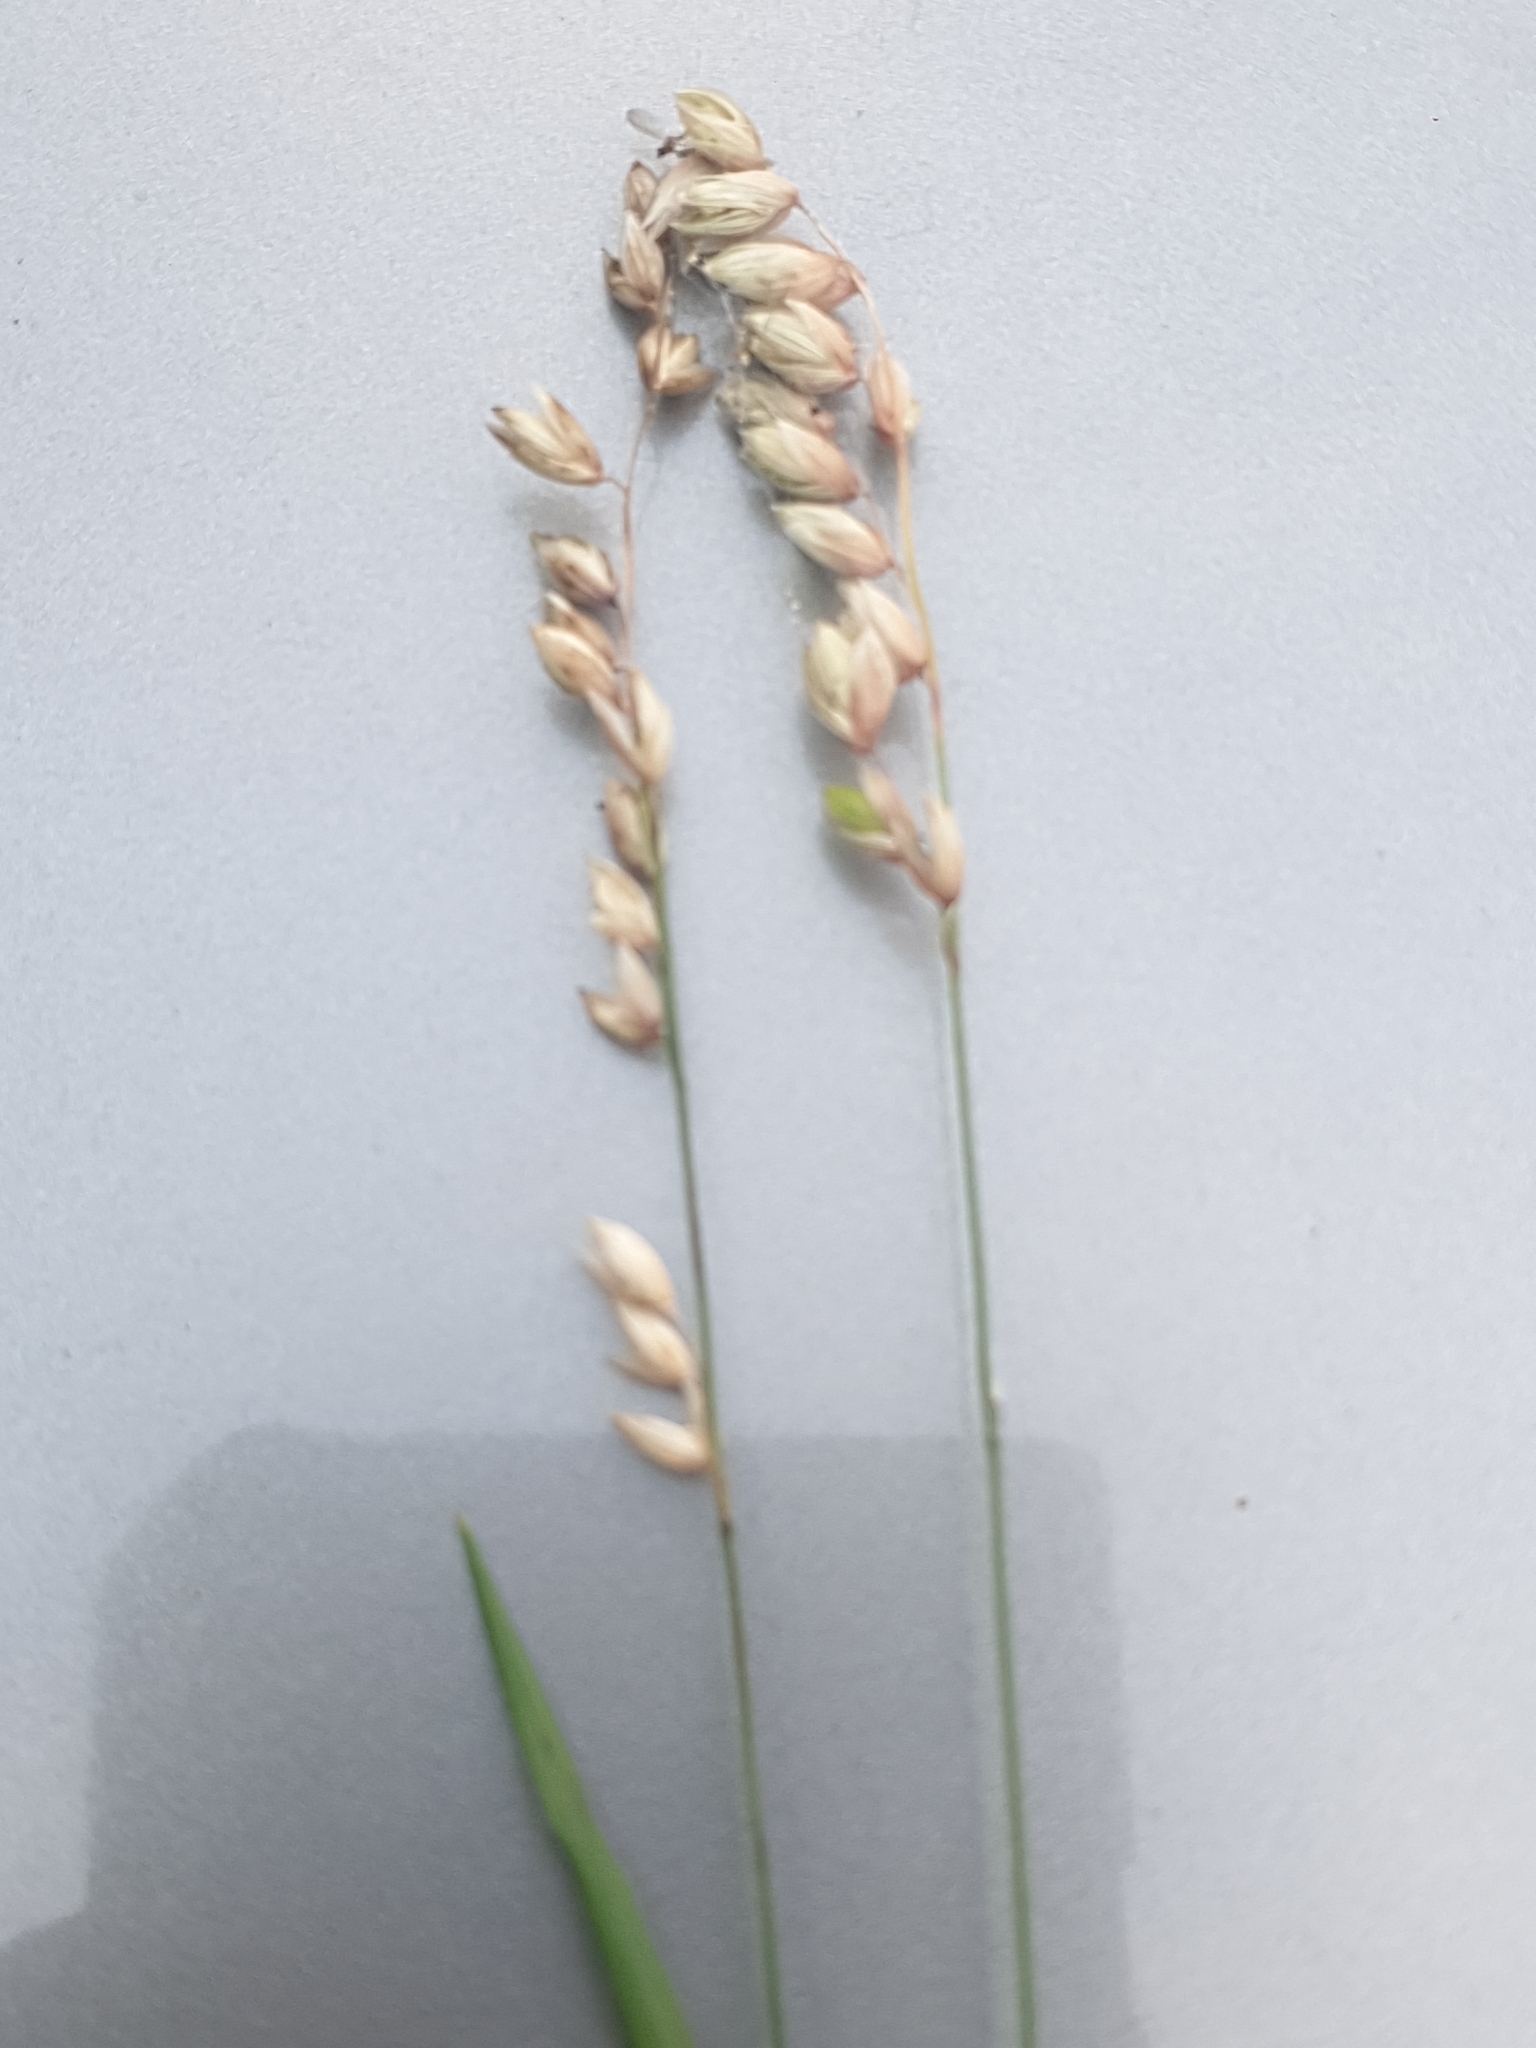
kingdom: Plantae
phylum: Tracheophyta
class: Liliopsida
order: Poales
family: Poaceae
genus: Melica
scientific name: Melica nutans
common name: Mountain melick
